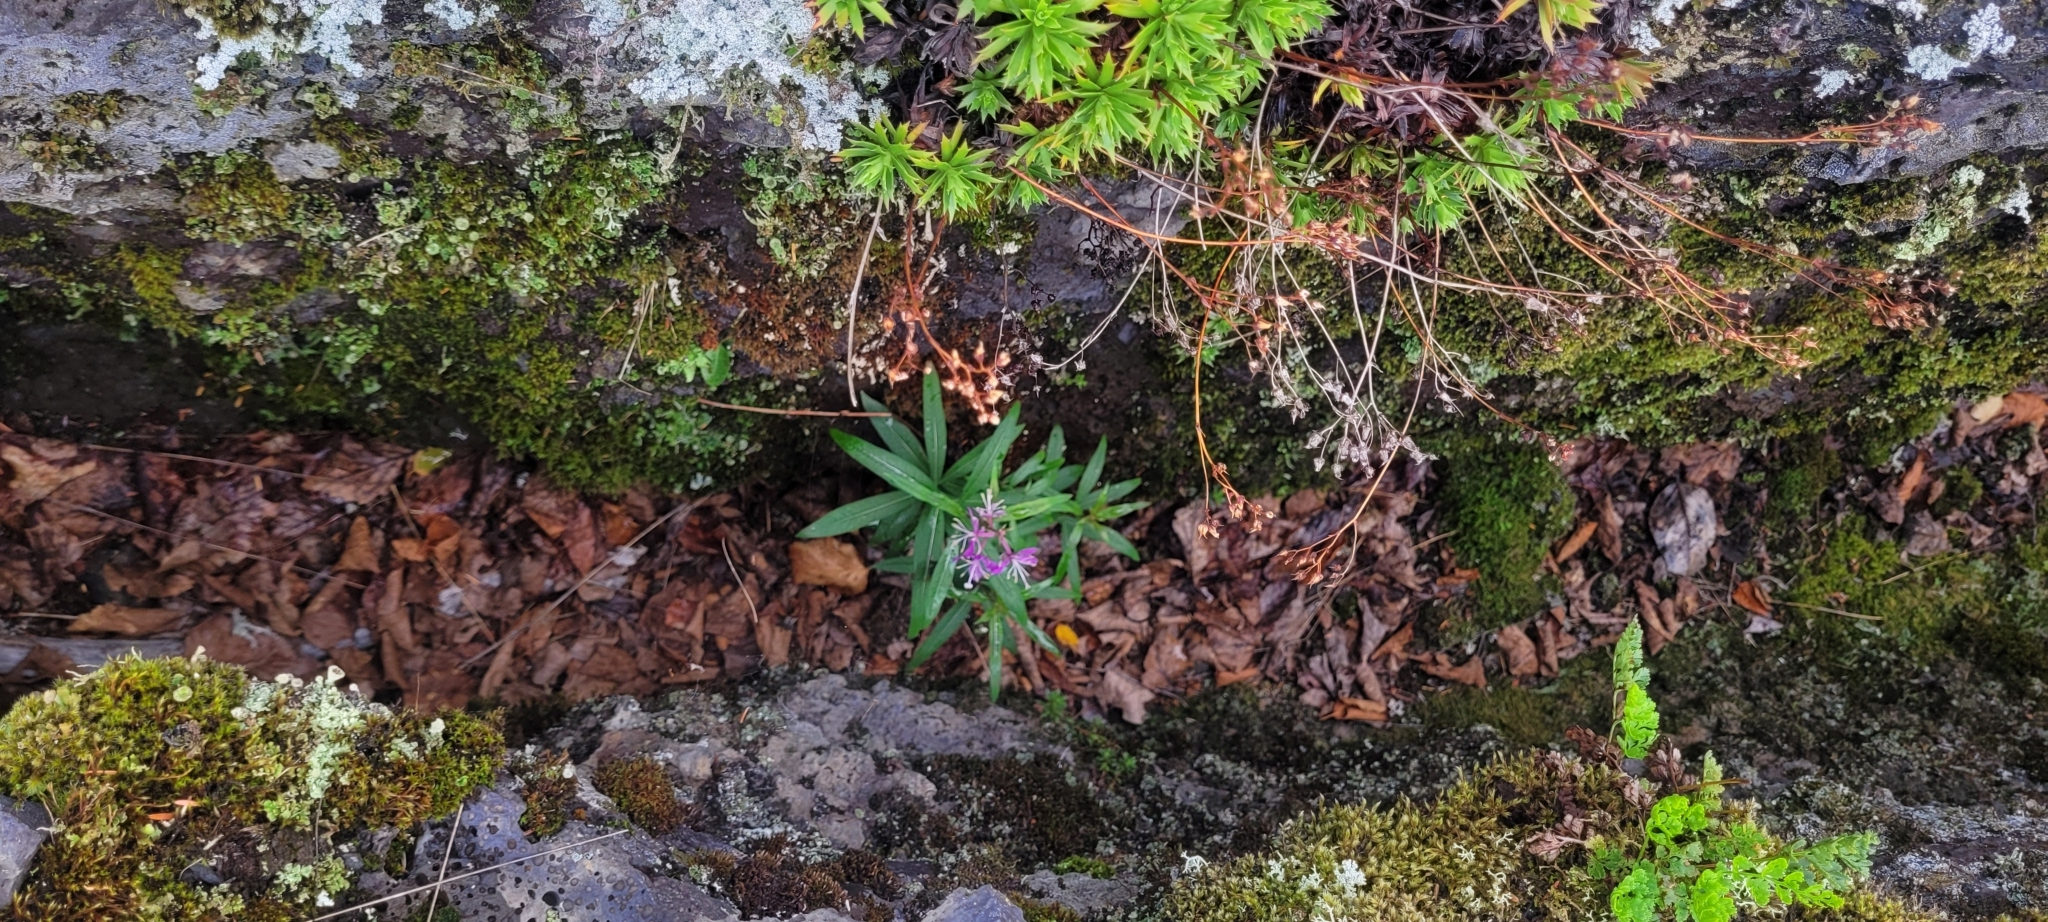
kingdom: Plantae
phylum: Tracheophyta
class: Magnoliopsida
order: Myrtales
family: Onagraceae
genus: Chamaenerion
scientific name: Chamaenerion angustifolium
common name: Fireweed
